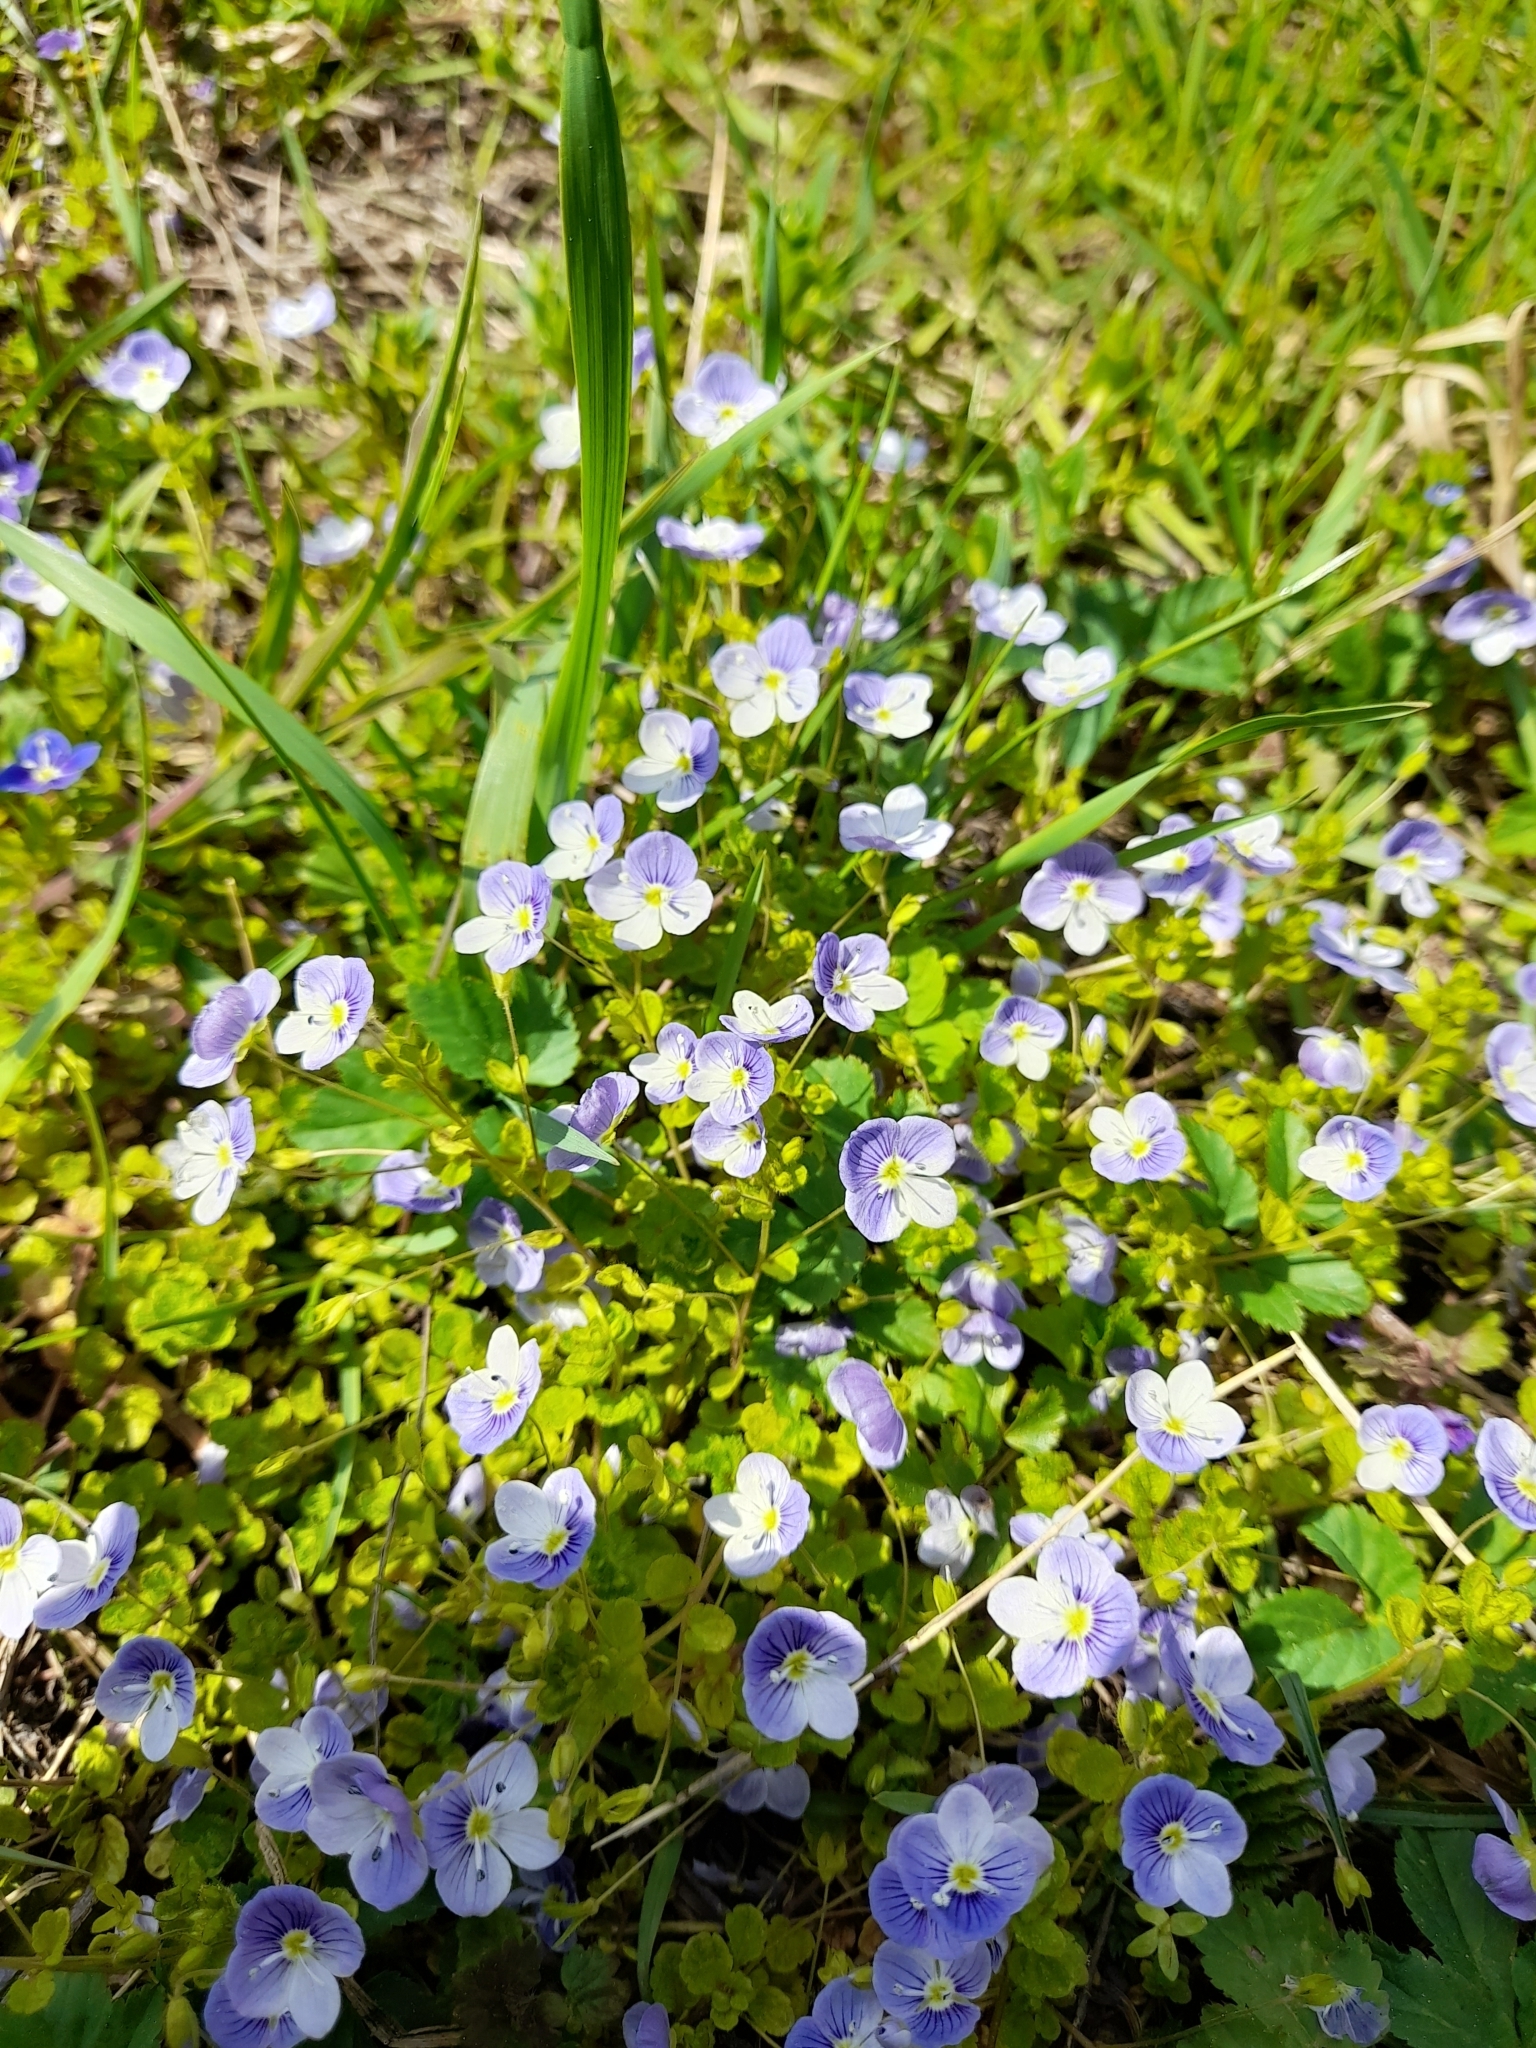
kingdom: Plantae
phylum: Tracheophyta
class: Magnoliopsida
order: Lamiales
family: Plantaginaceae
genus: Veronica
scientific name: Veronica filiformis
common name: Slender speedwell
